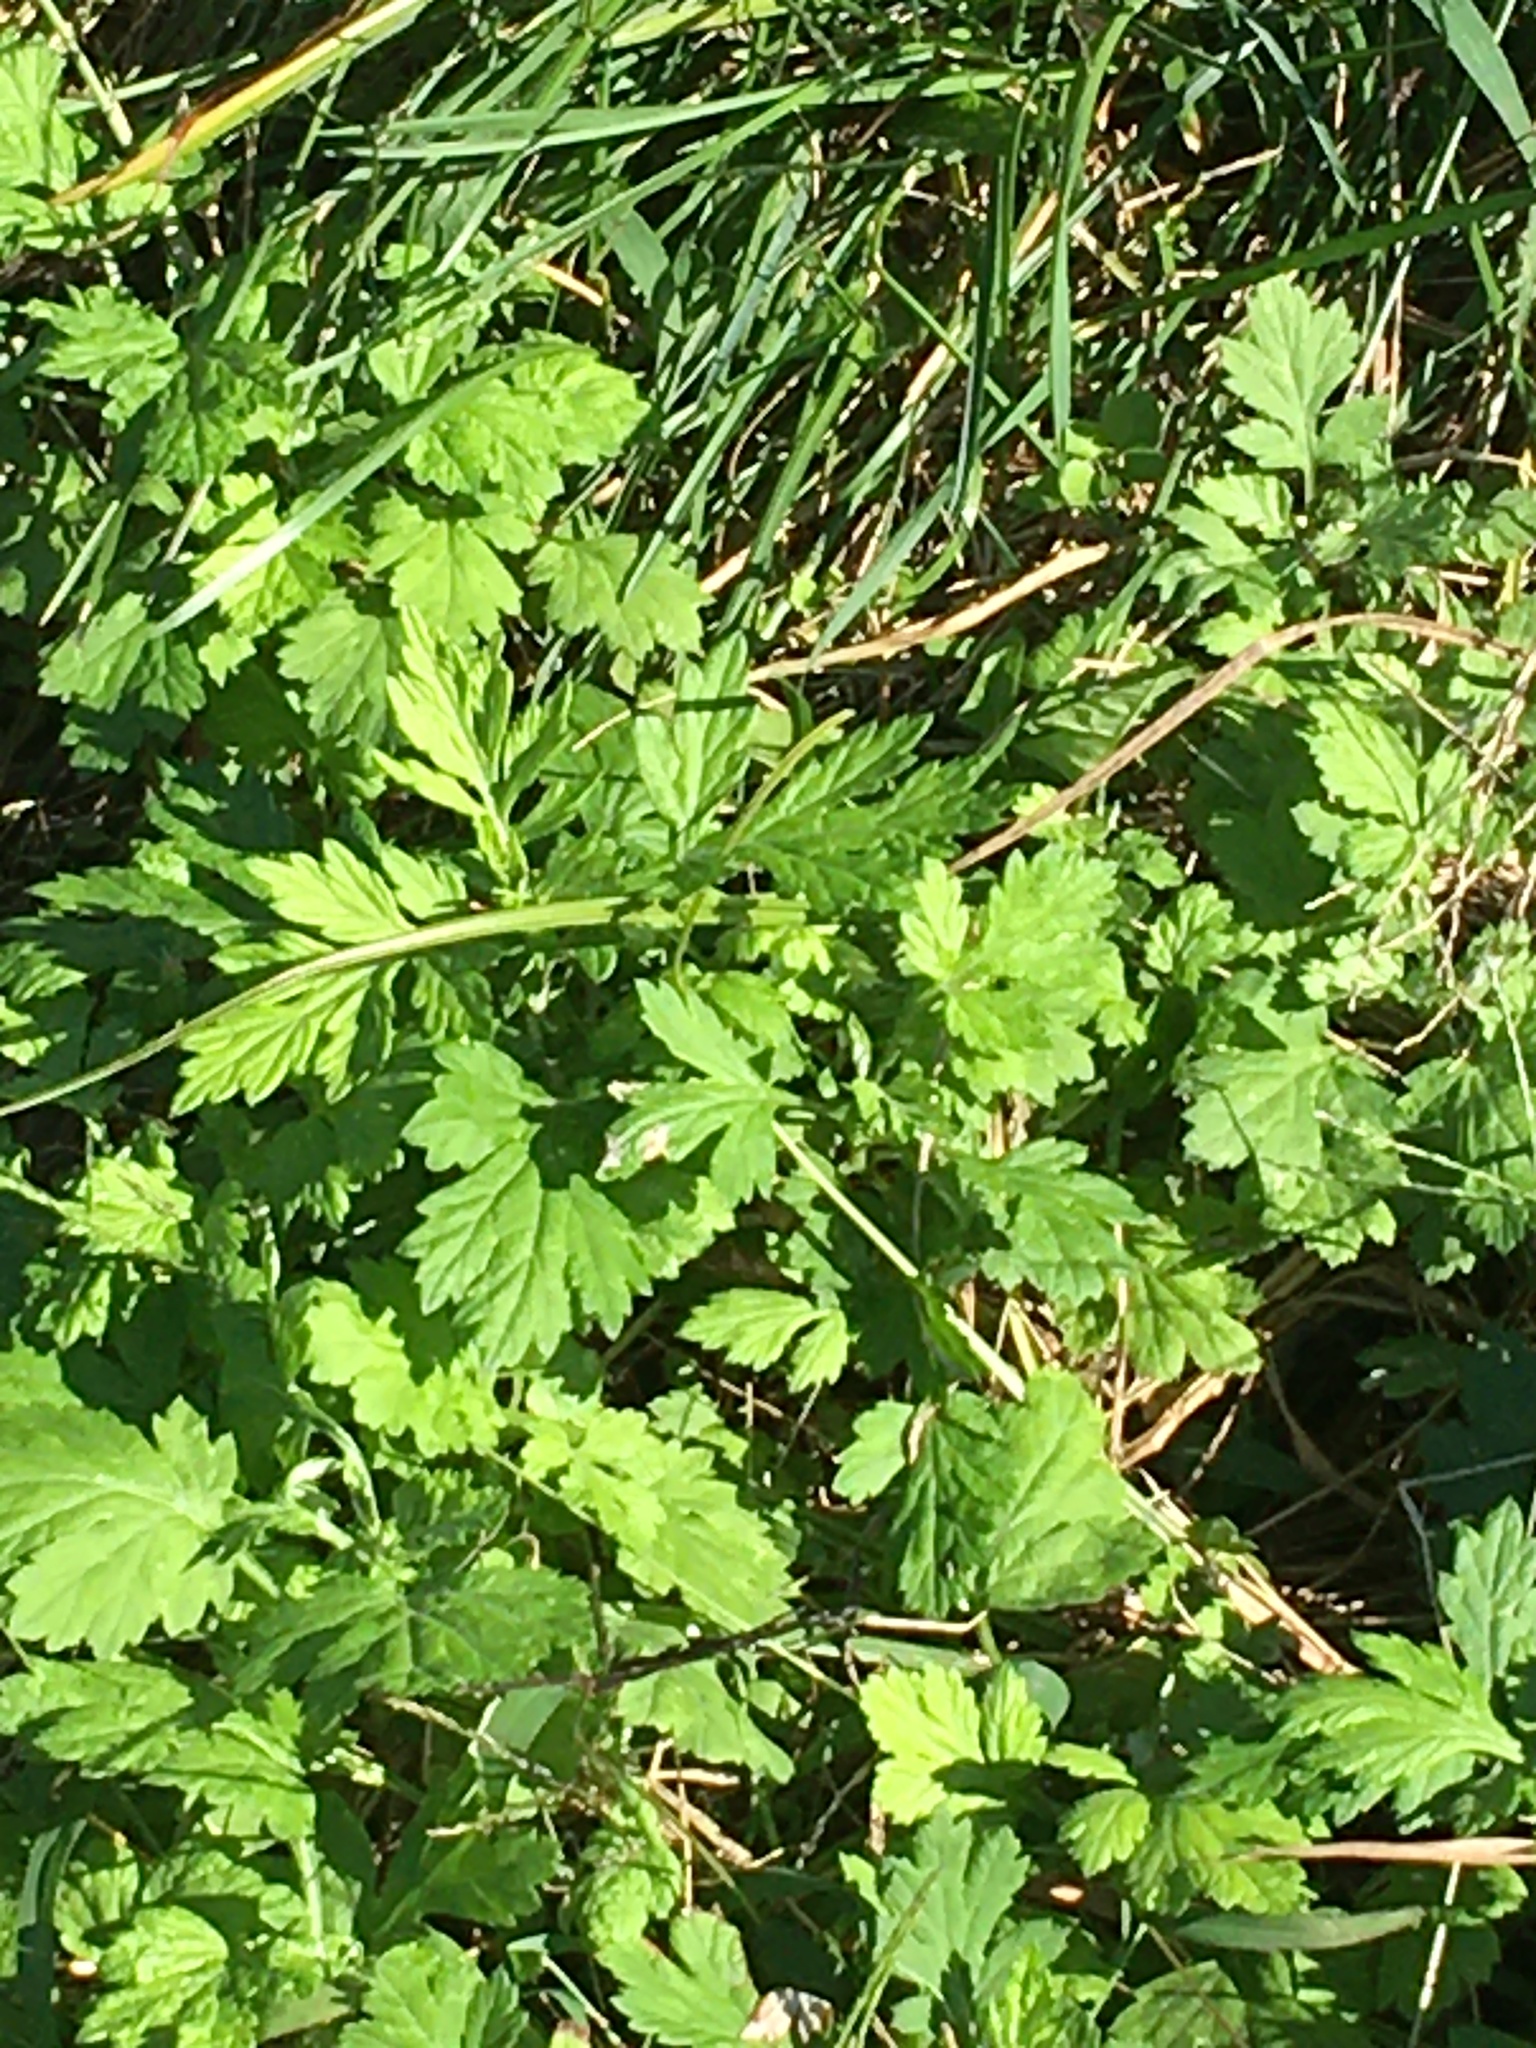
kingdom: Plantae
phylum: Tracheophyta
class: Magnoliopsida
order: Asterales
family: Asteraceae
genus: Artemisia
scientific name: Artemisia vulgaris
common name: Mugwort
